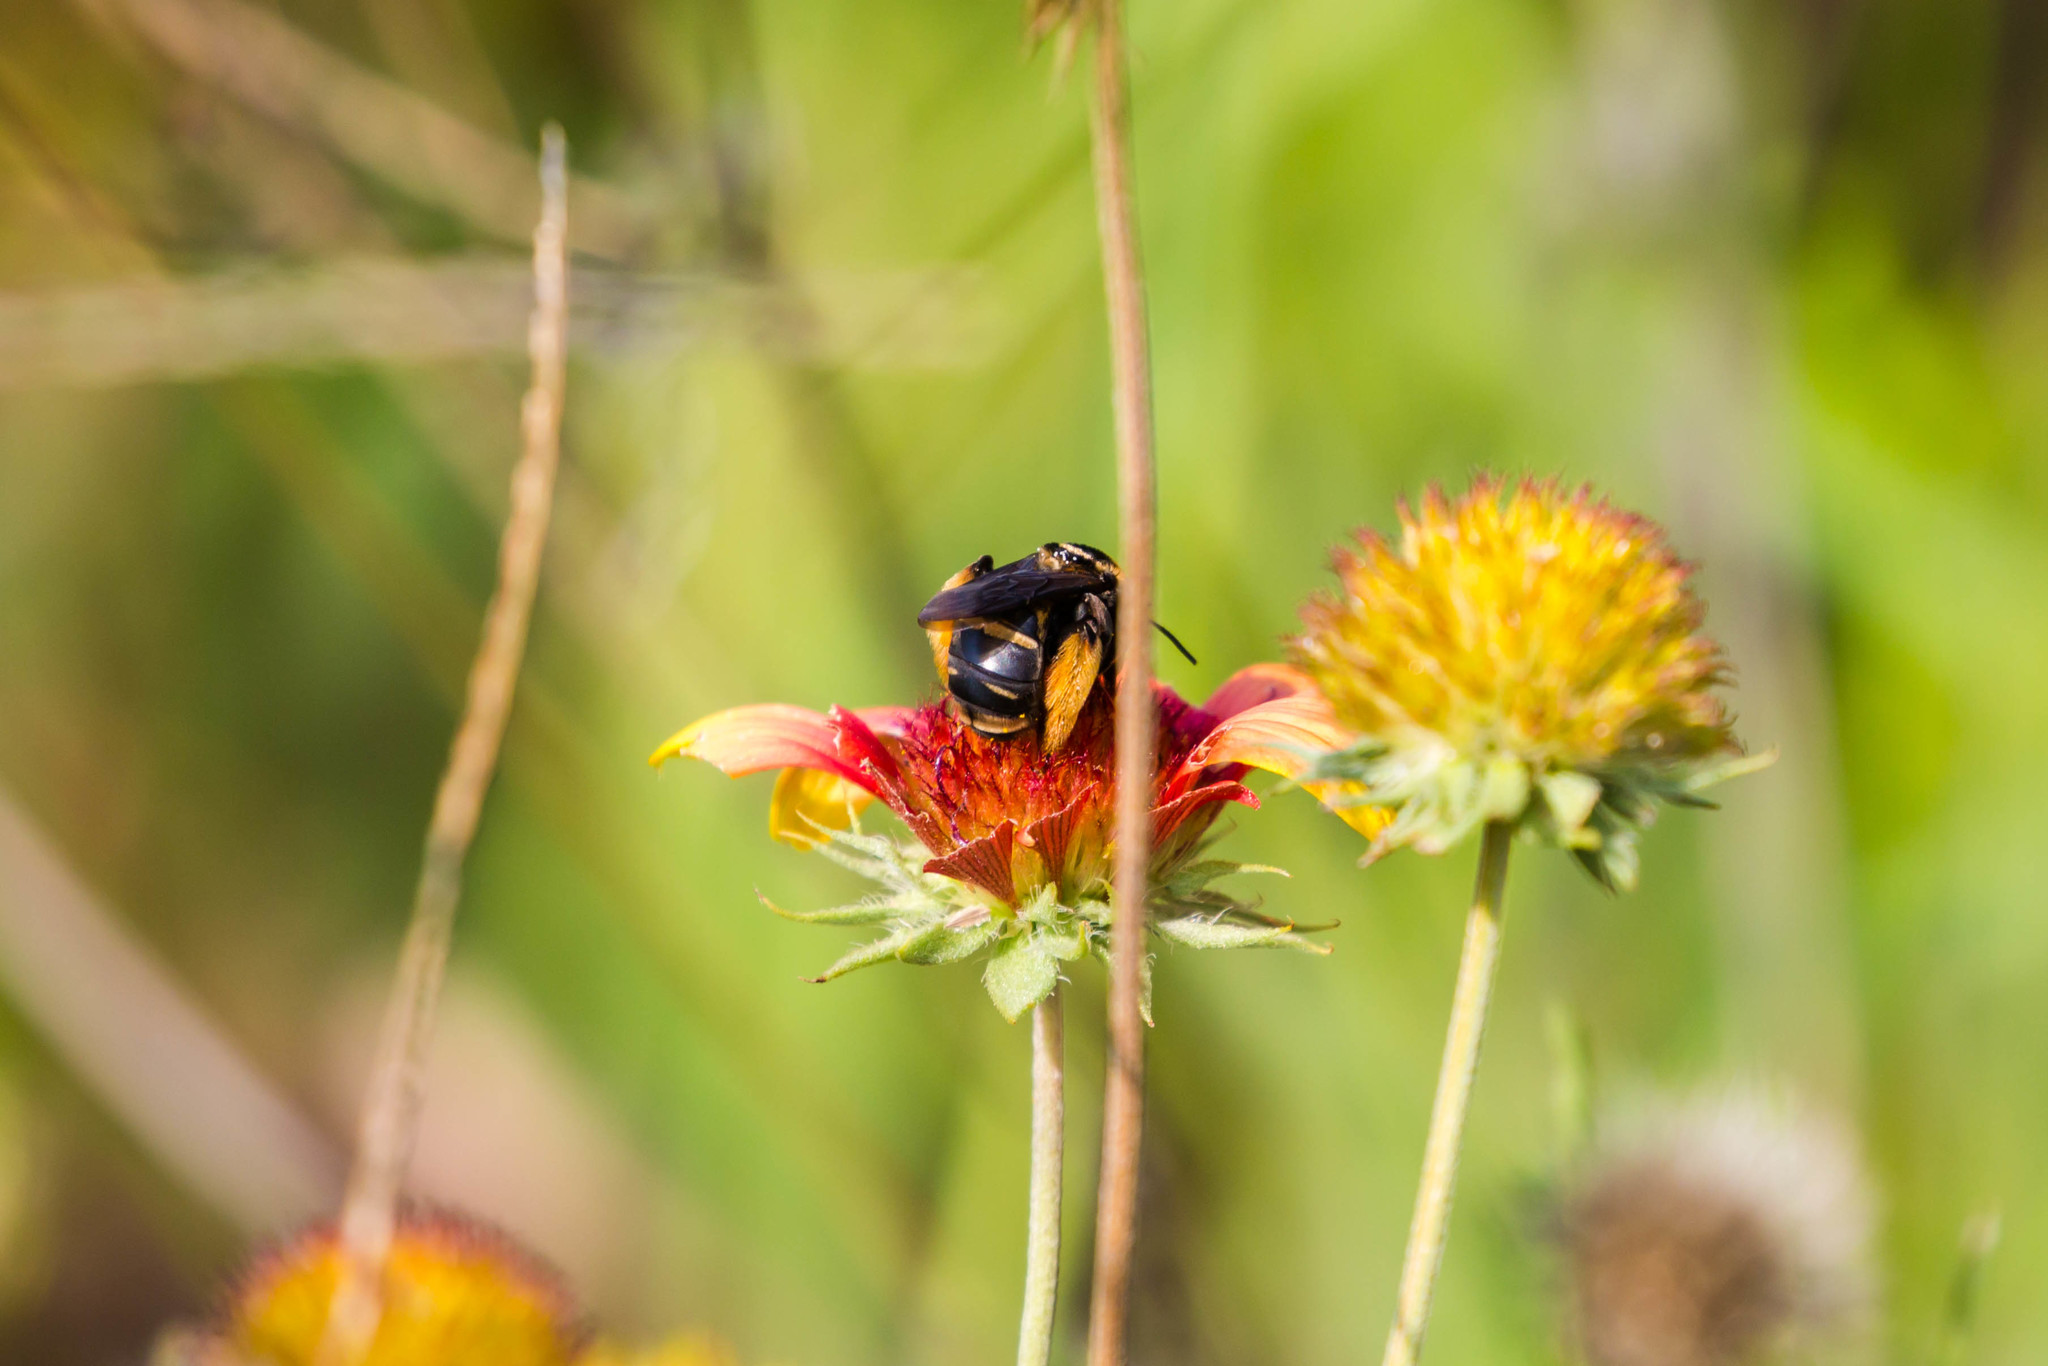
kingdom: Animalia
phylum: Arthropoda
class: Insecta
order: Hymenoptera
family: Apidae
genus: Svastra
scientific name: Svastra obliqua
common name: Oblique longhorn
